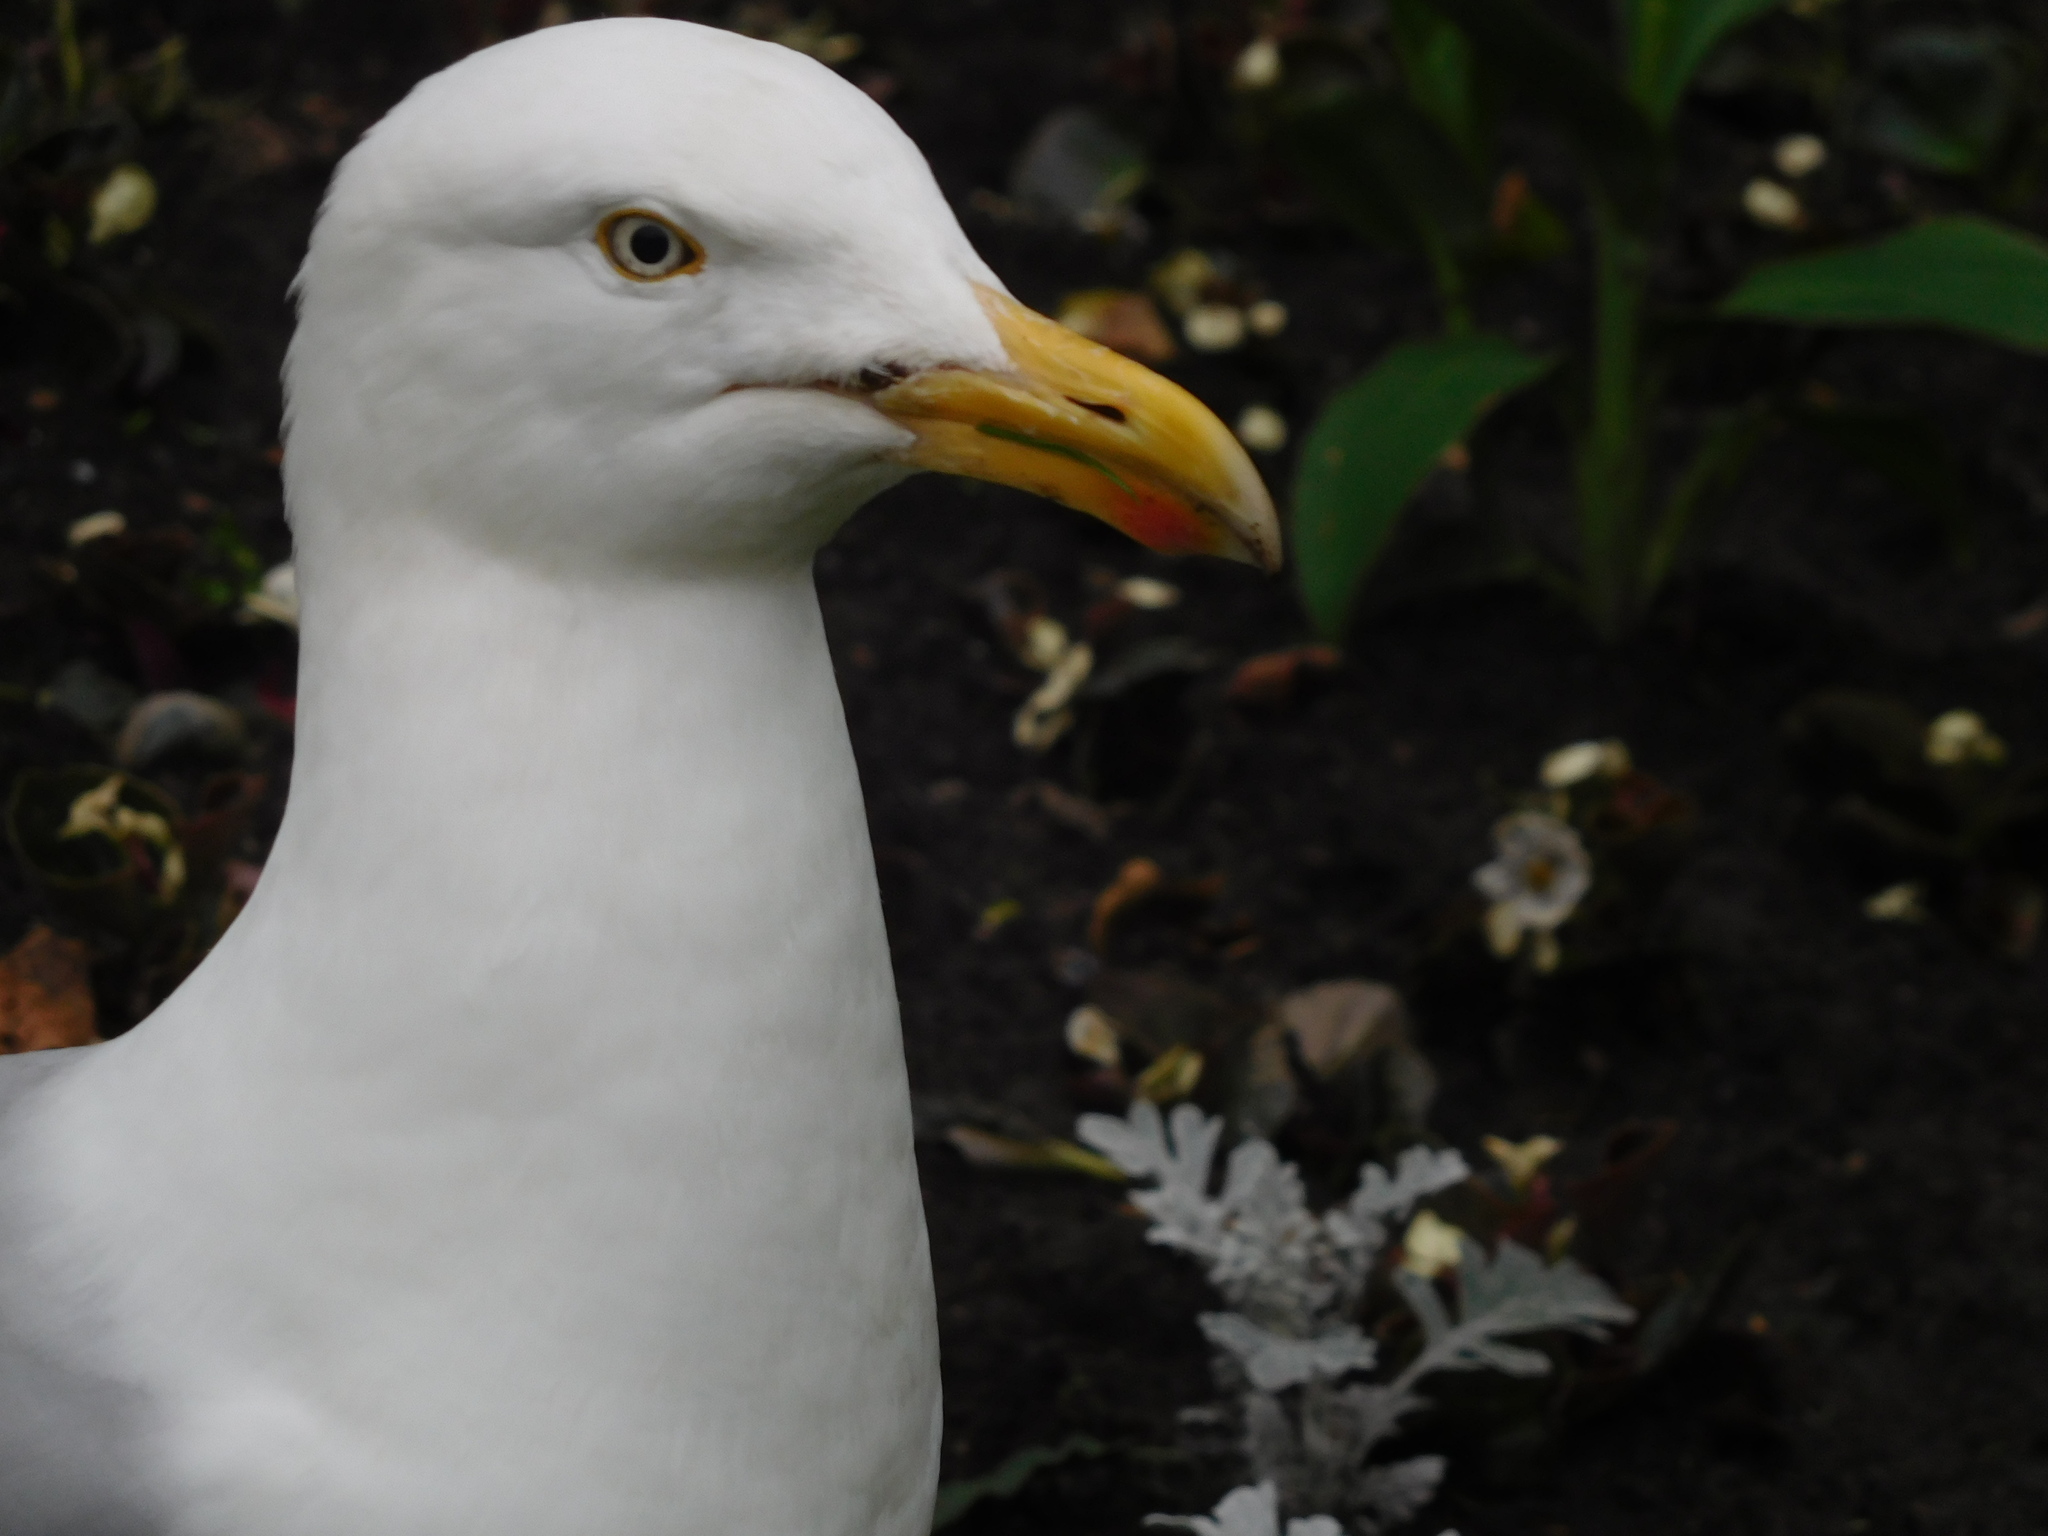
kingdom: Animalia
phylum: Chordata
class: Aves
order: Charadriiformes
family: Laridae
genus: Larus
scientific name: Larus argentatus
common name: Herring gull
